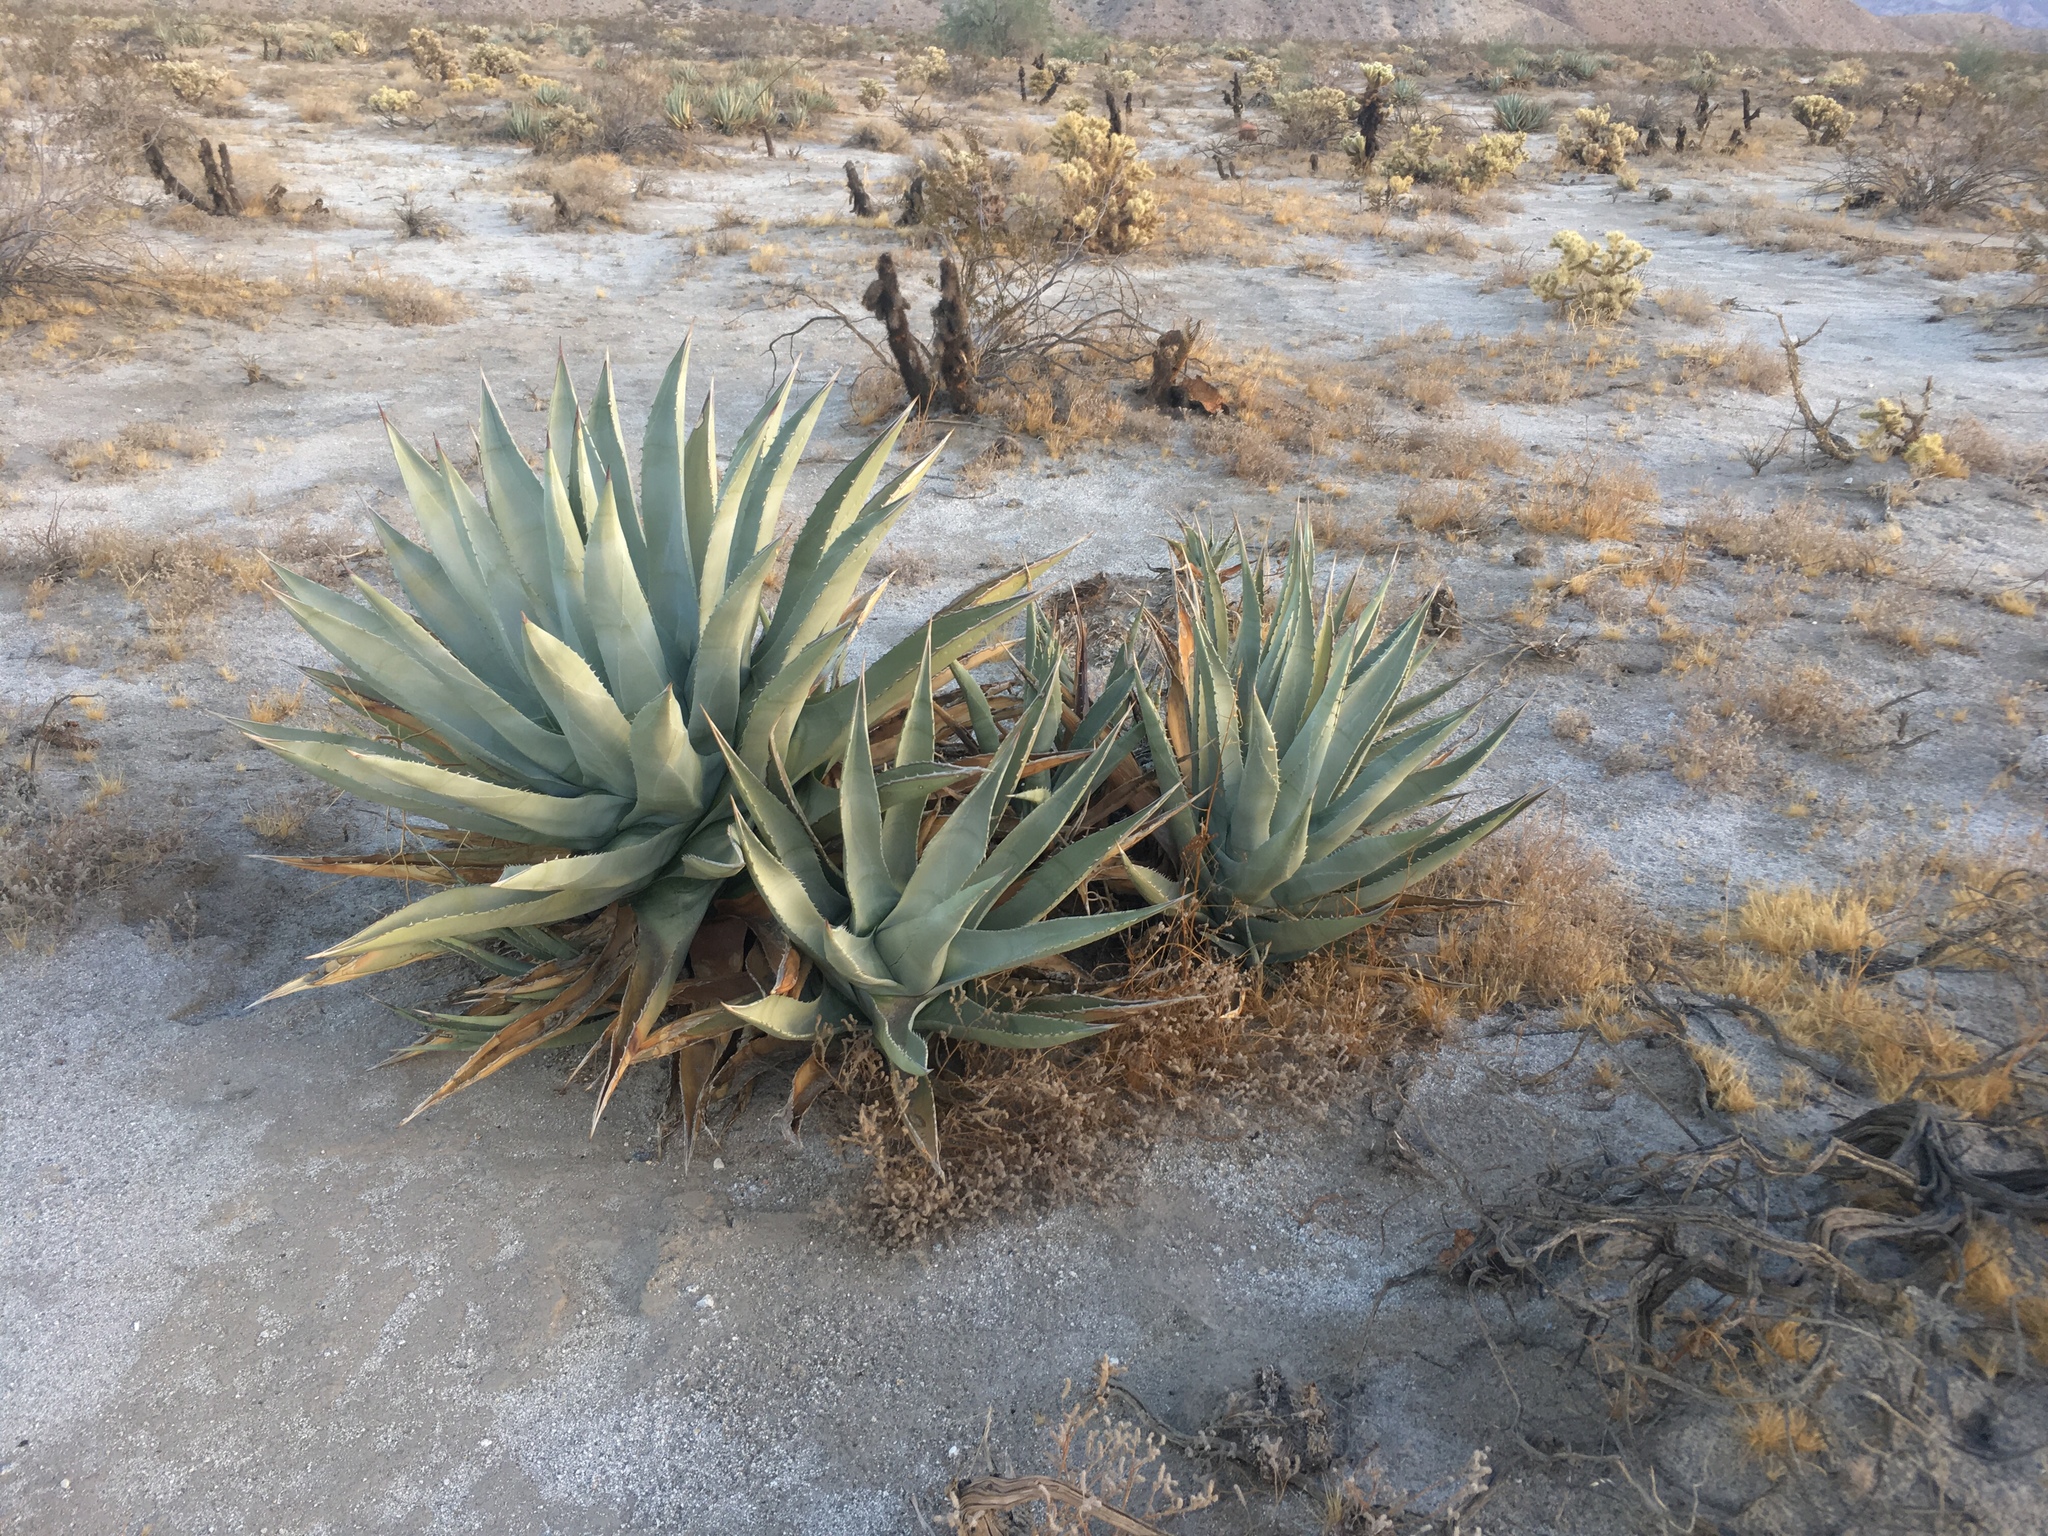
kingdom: Plantae
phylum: Tracheophyta
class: Liliopsida
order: Asparagales
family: Asparagaceae
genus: Agave
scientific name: Agave deserti
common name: Desert agave
